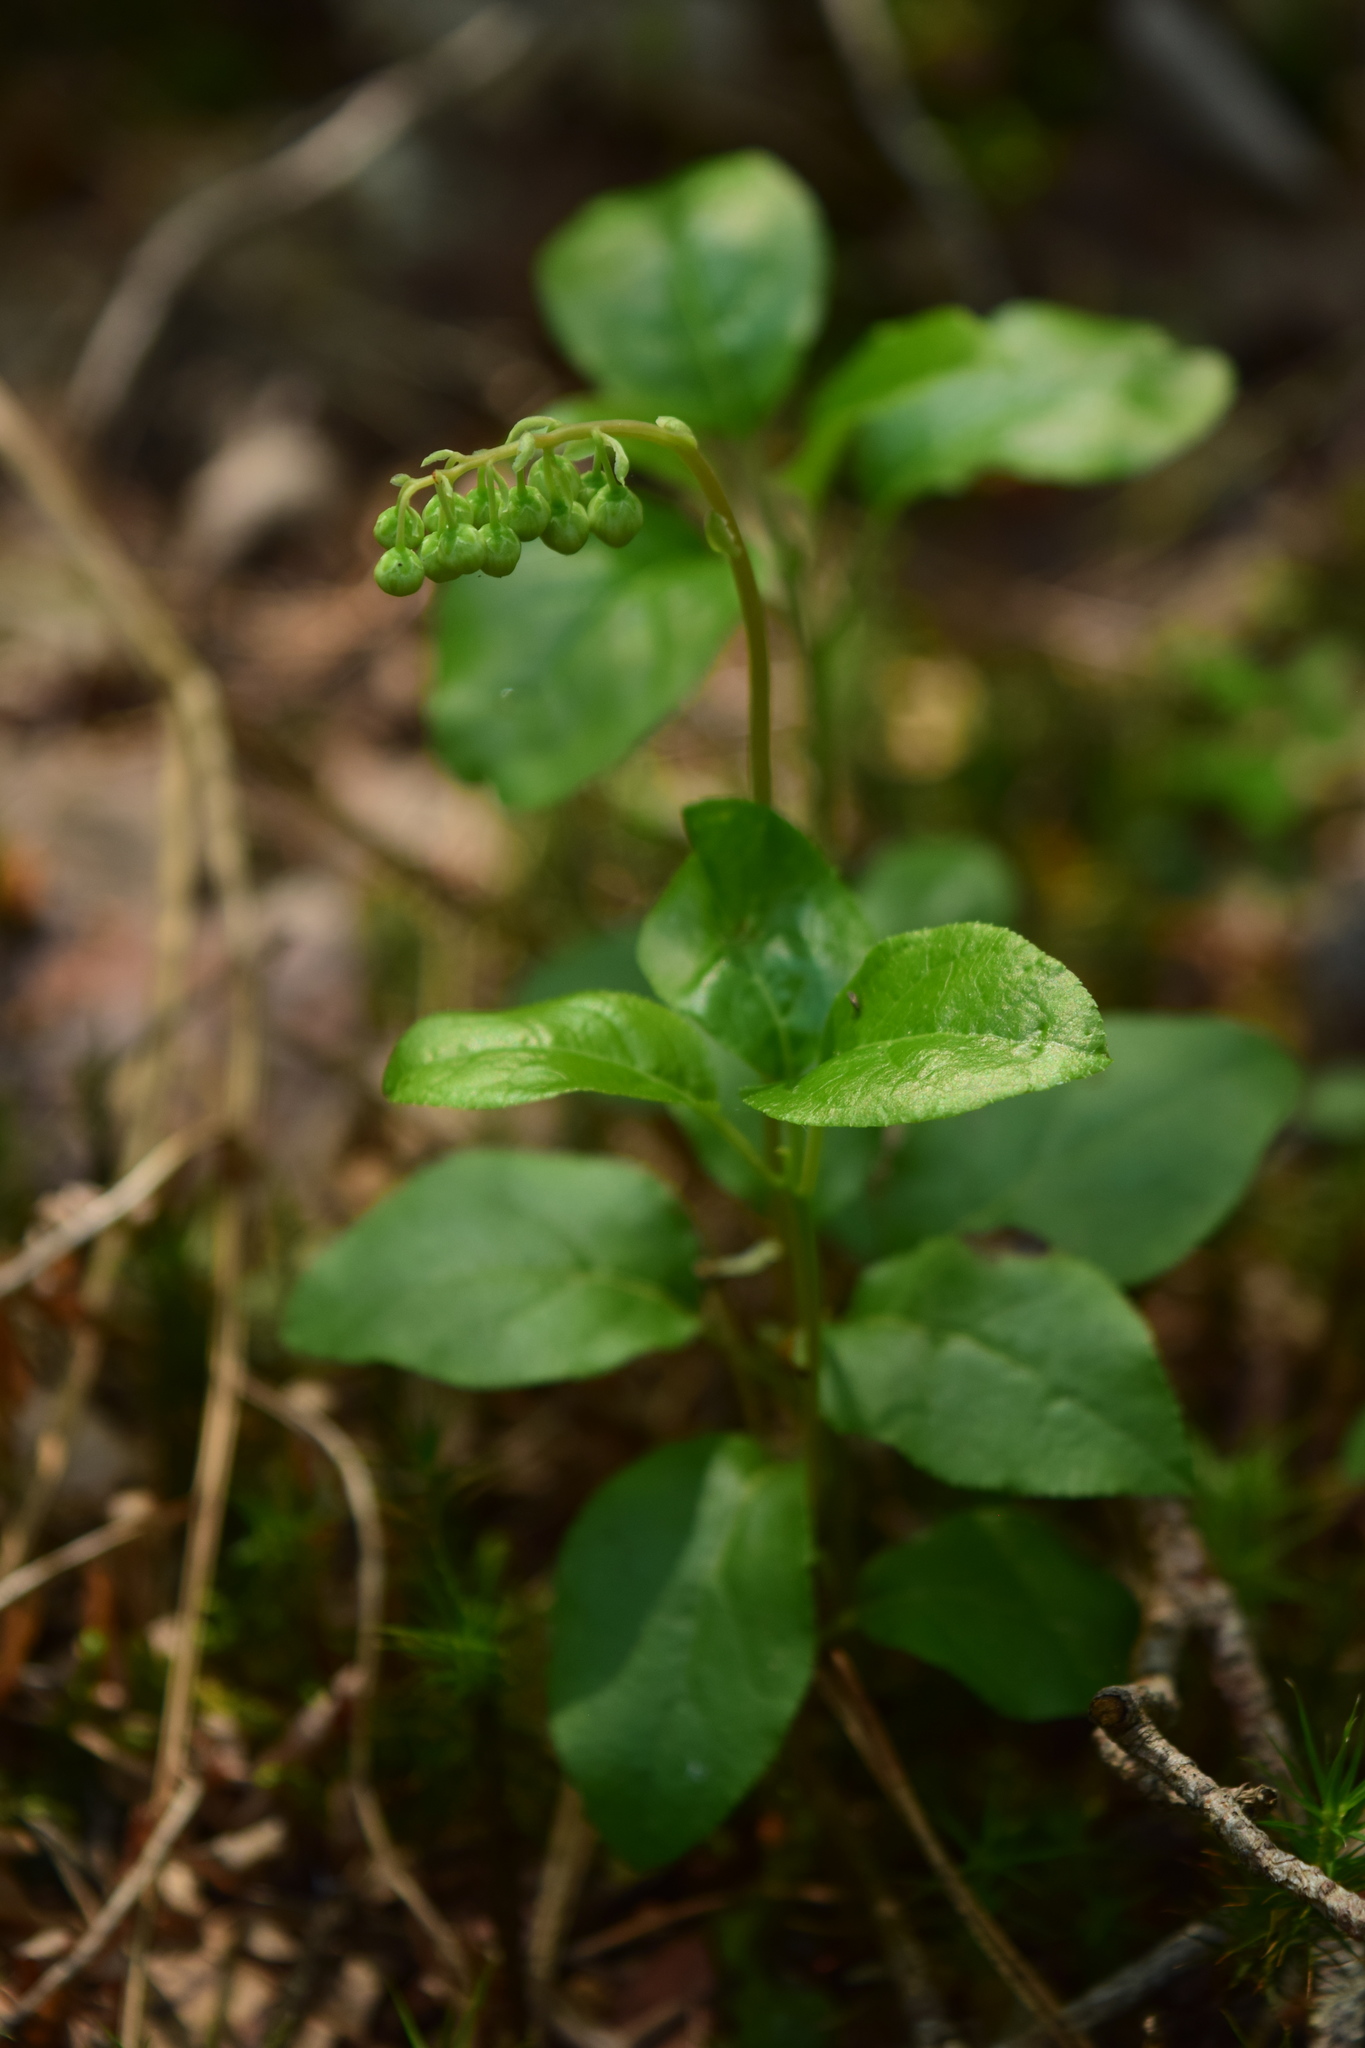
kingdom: Plantae
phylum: Tracheophyta
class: Magnoliopsida
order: Ericales
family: Ericaceae
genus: Orthilia
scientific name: Orthilia secunda
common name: One-sided orthilia
